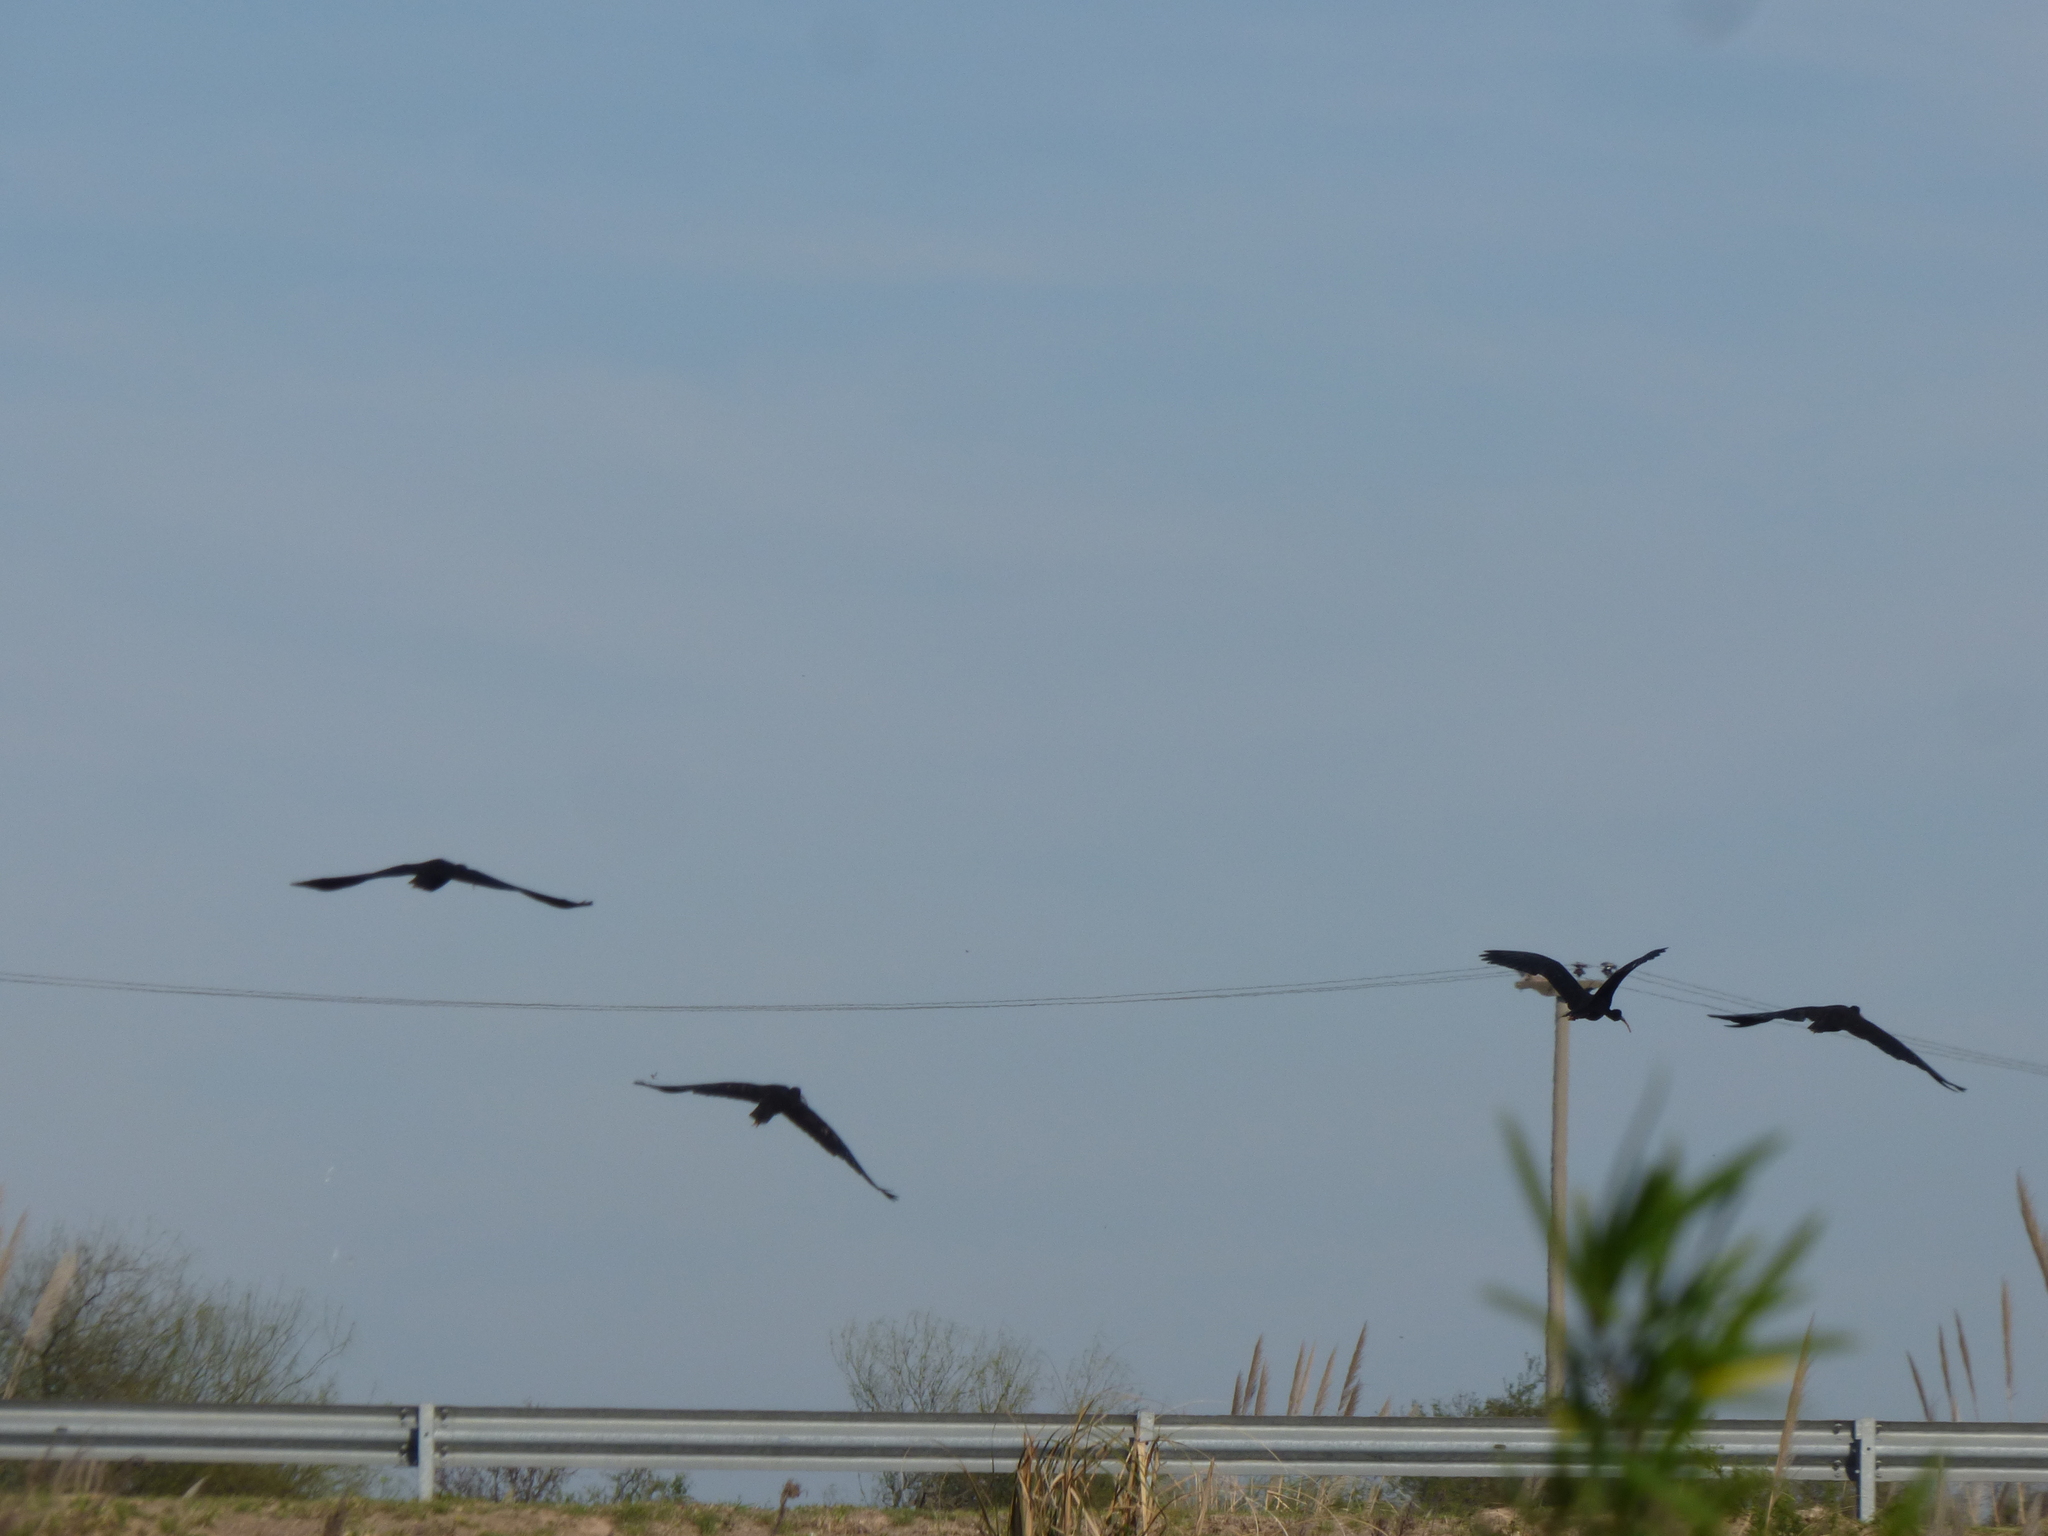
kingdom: Animalia
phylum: Chordata
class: Aves
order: Pelecaniformes
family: Threskiornithidae
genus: Phimosus
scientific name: Phimosus infuscatus
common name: Bare-faced ibis
